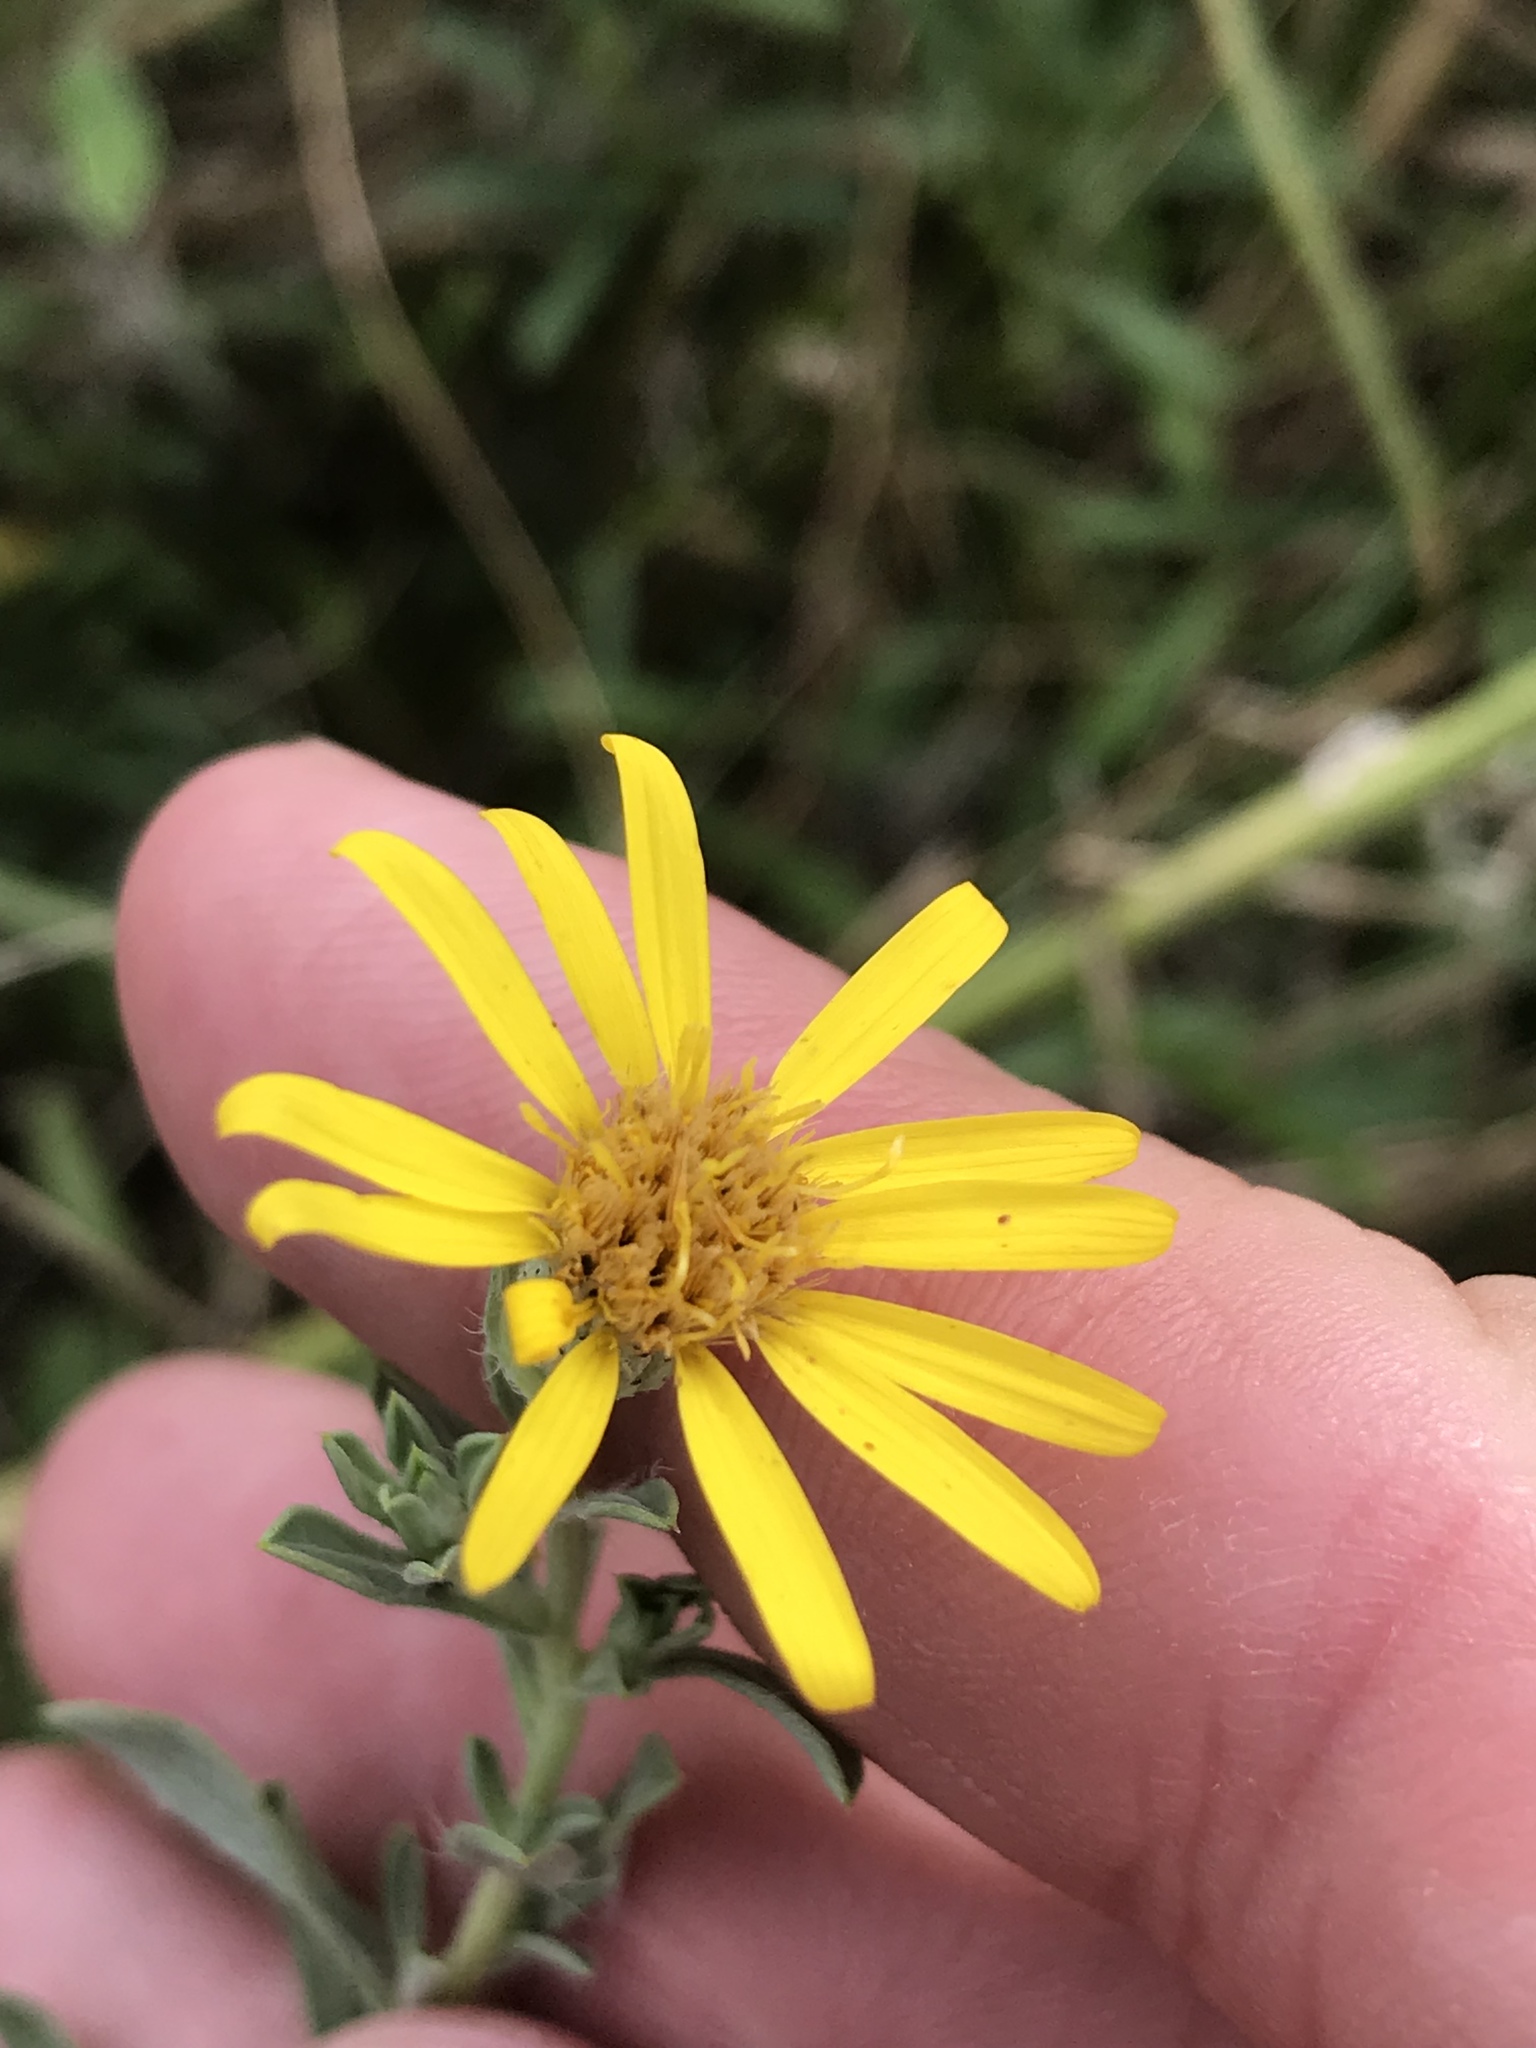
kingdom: Plantae
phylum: Tracheophyta
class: Magnoliopsida
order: Asterales
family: Asteraceae
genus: Heterotheca
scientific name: Heterotheca canescens
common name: Hoary golden-aster
